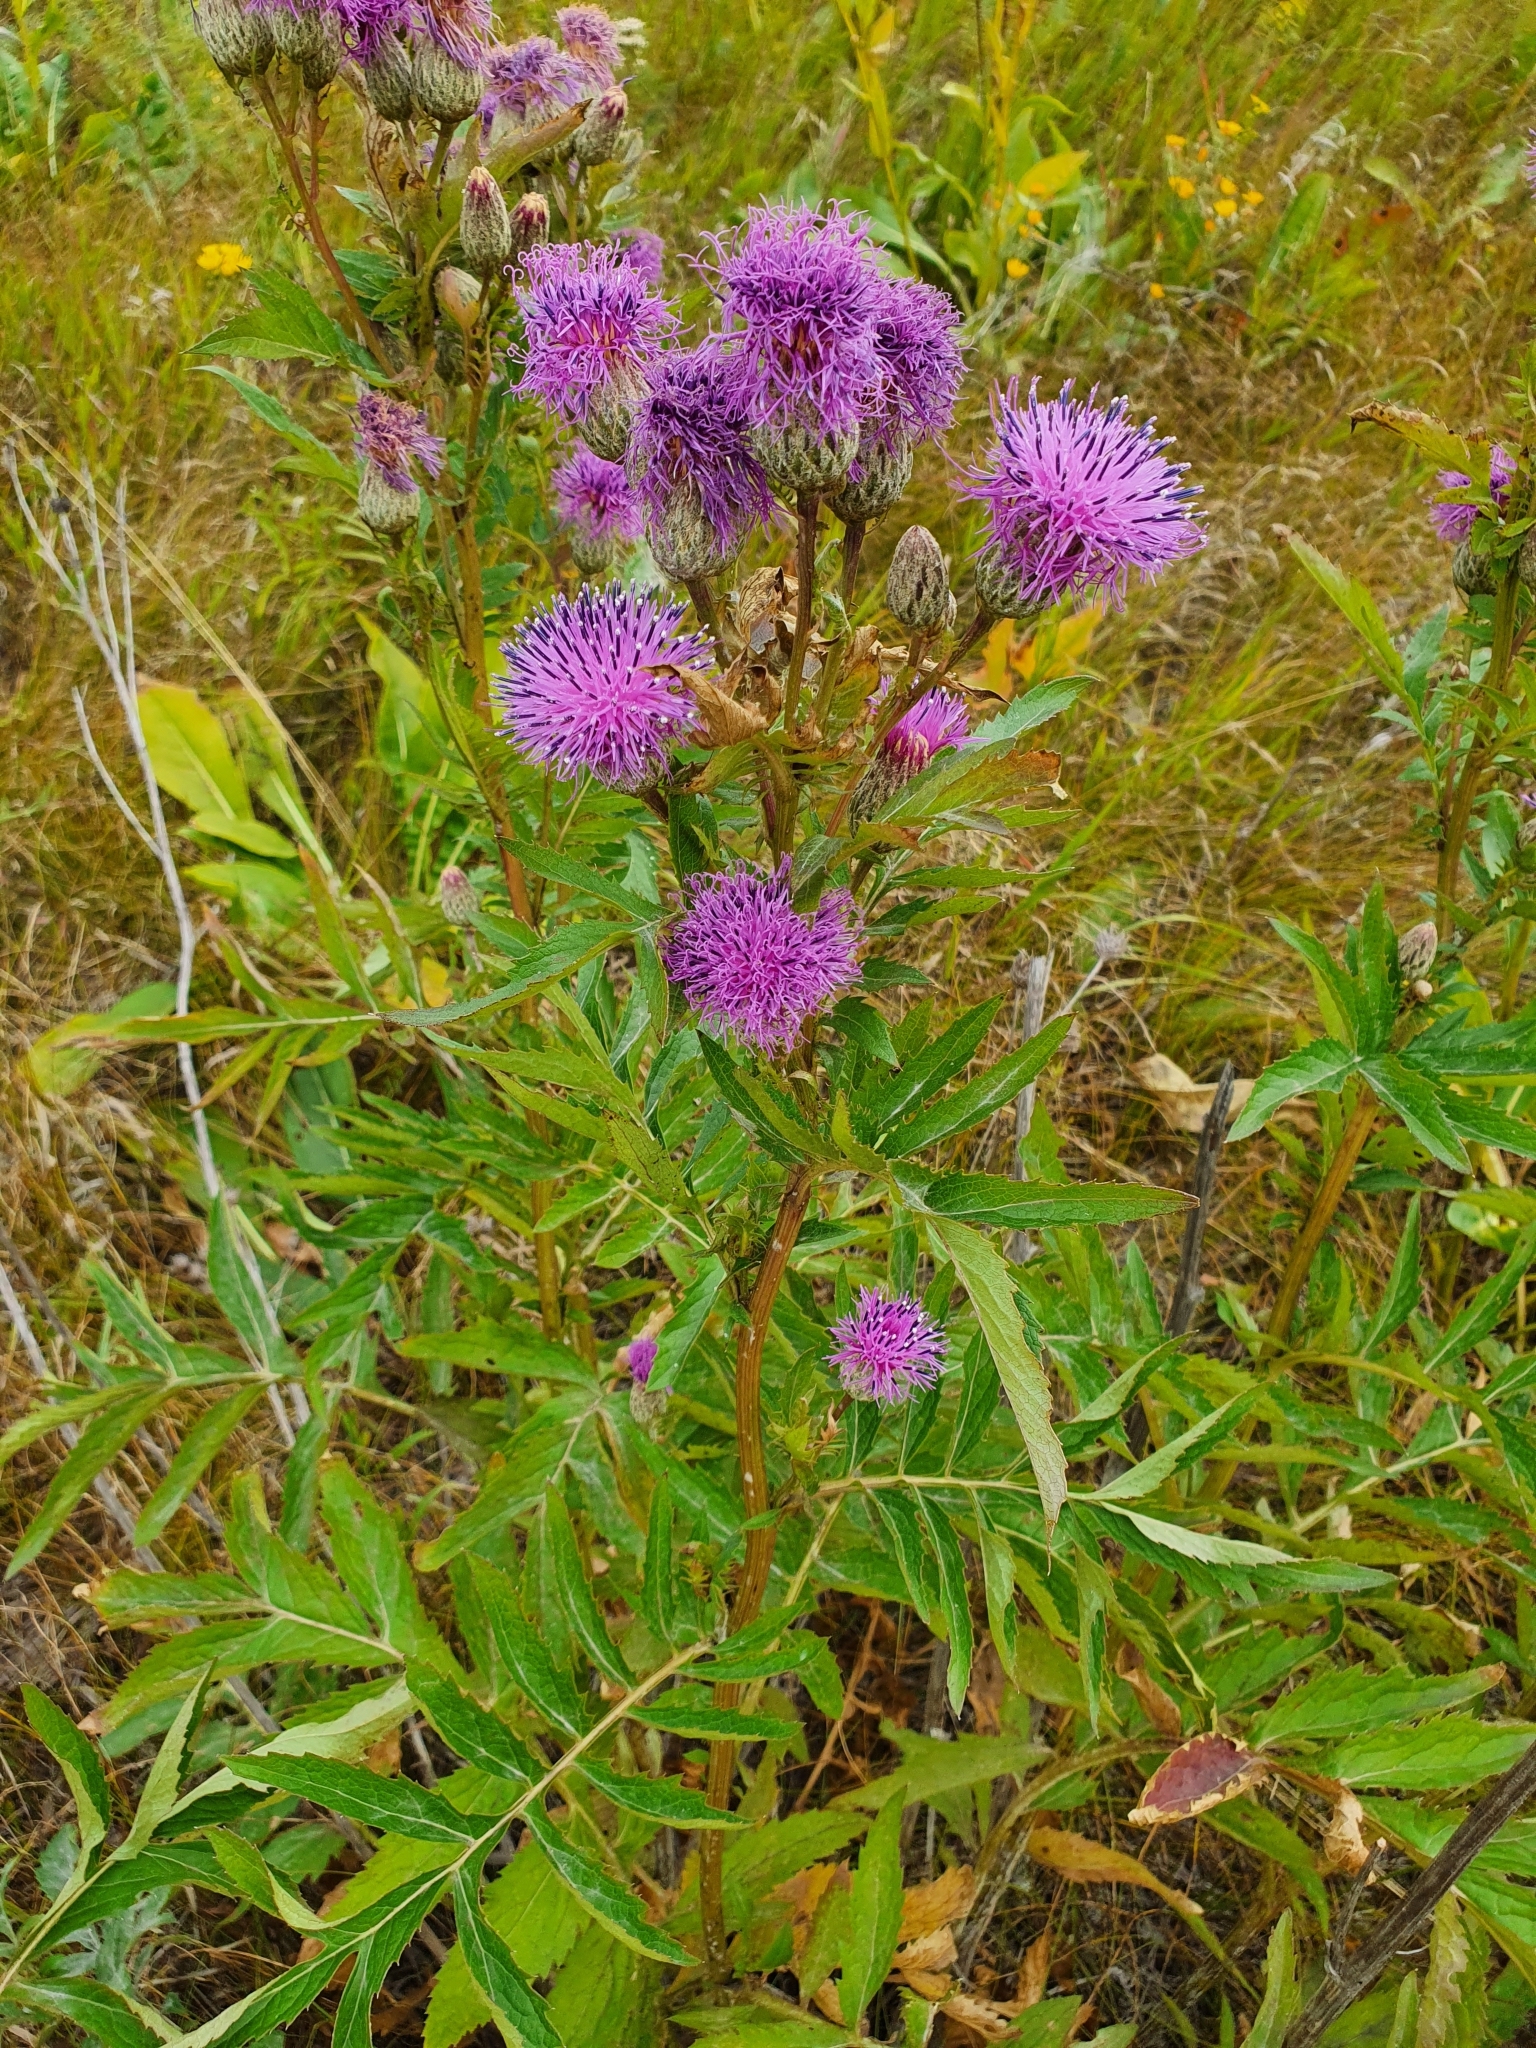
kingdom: Plantae
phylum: Tracheophyta
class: Magnoliopsida
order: Asterales
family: Asteraceae
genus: Serratula
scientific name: Serratula coronata
